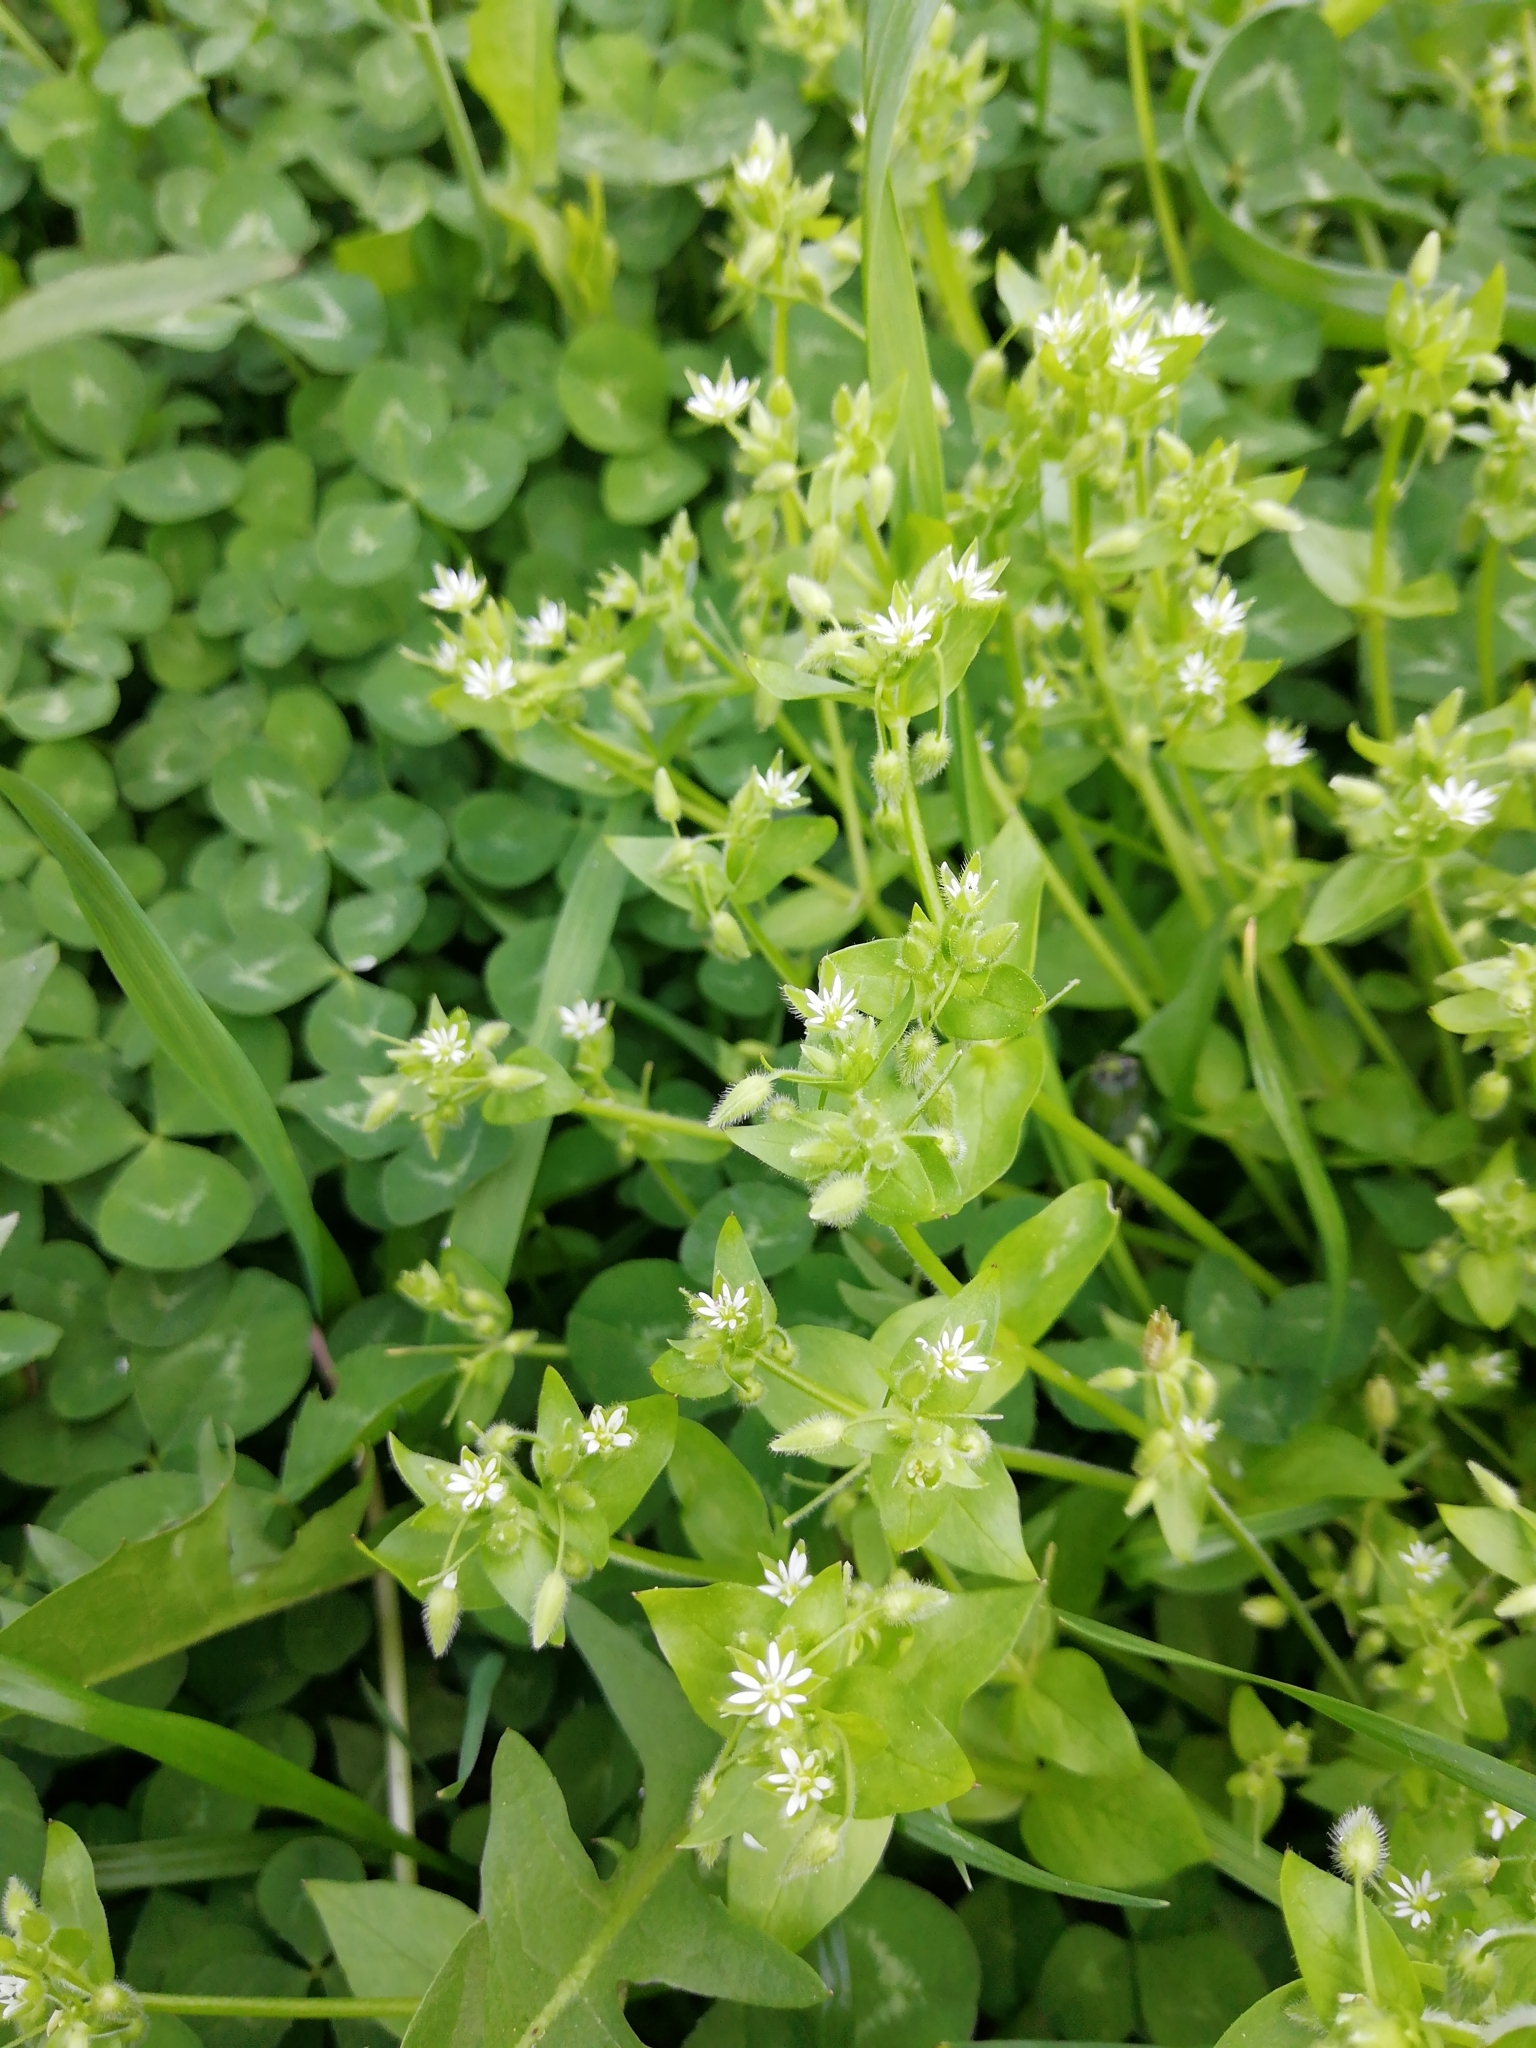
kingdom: Plantae
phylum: Tracheophyta
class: Magnoliopsida
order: Caryophyllales
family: Caryophyllaceae
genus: Stellaria
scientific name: Stellaria media
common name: Common chickweed
